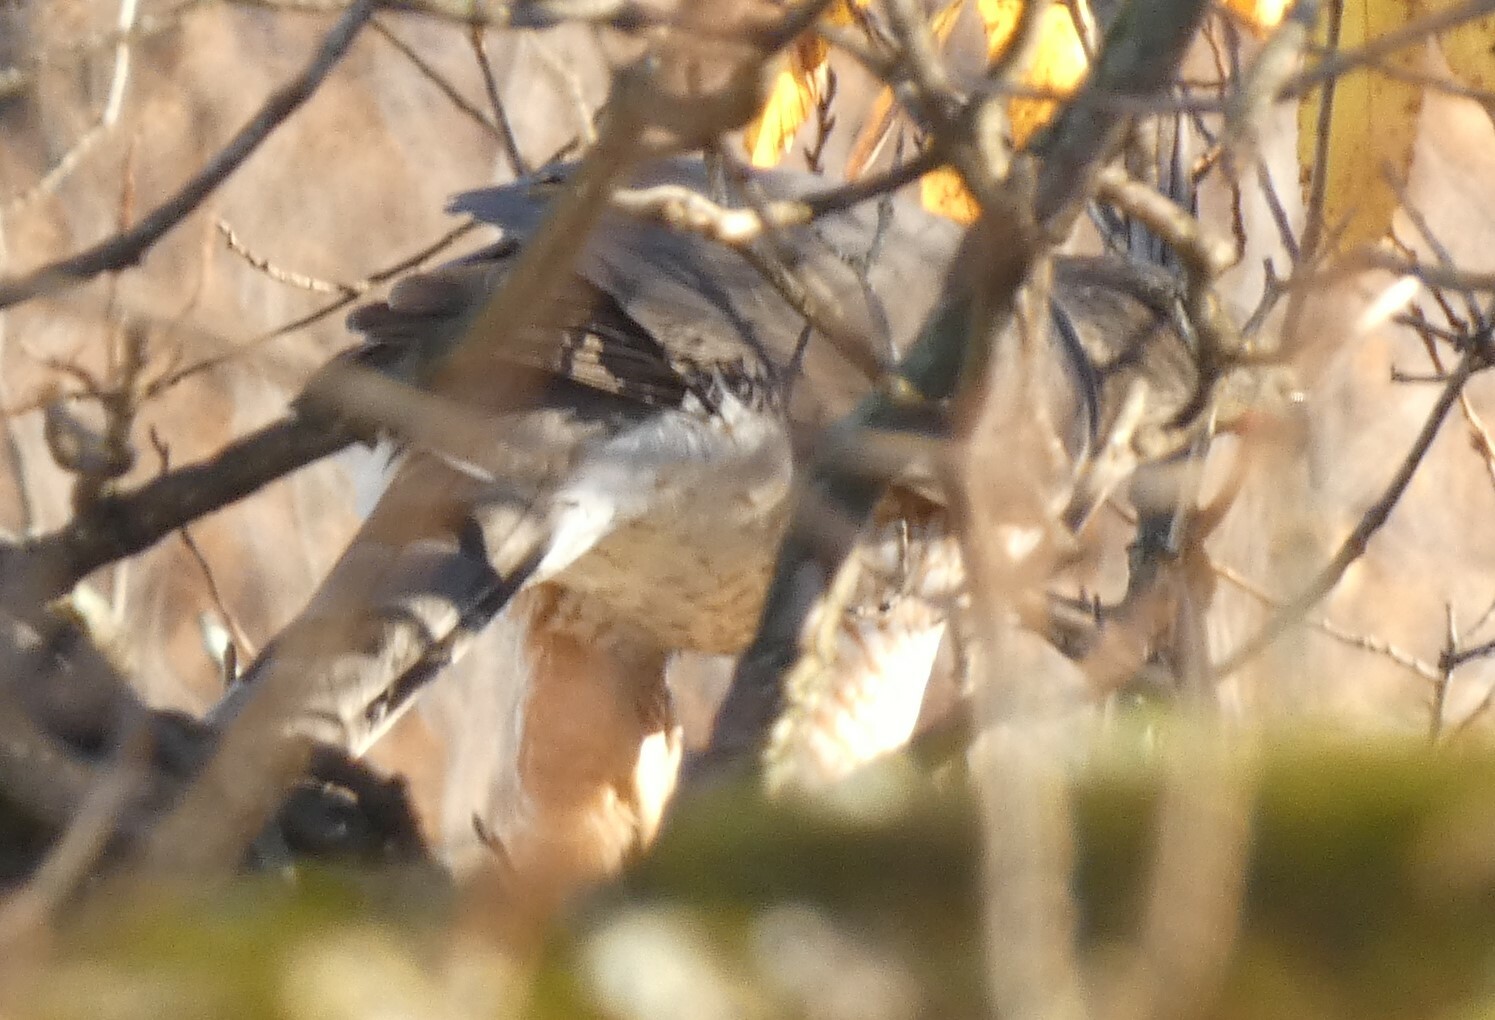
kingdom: Animalia
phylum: Chordata
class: Aves
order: Accipitriformes
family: Accipitridae
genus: Accipiter
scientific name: Accipiter cooperii
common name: Cooper's hawk
